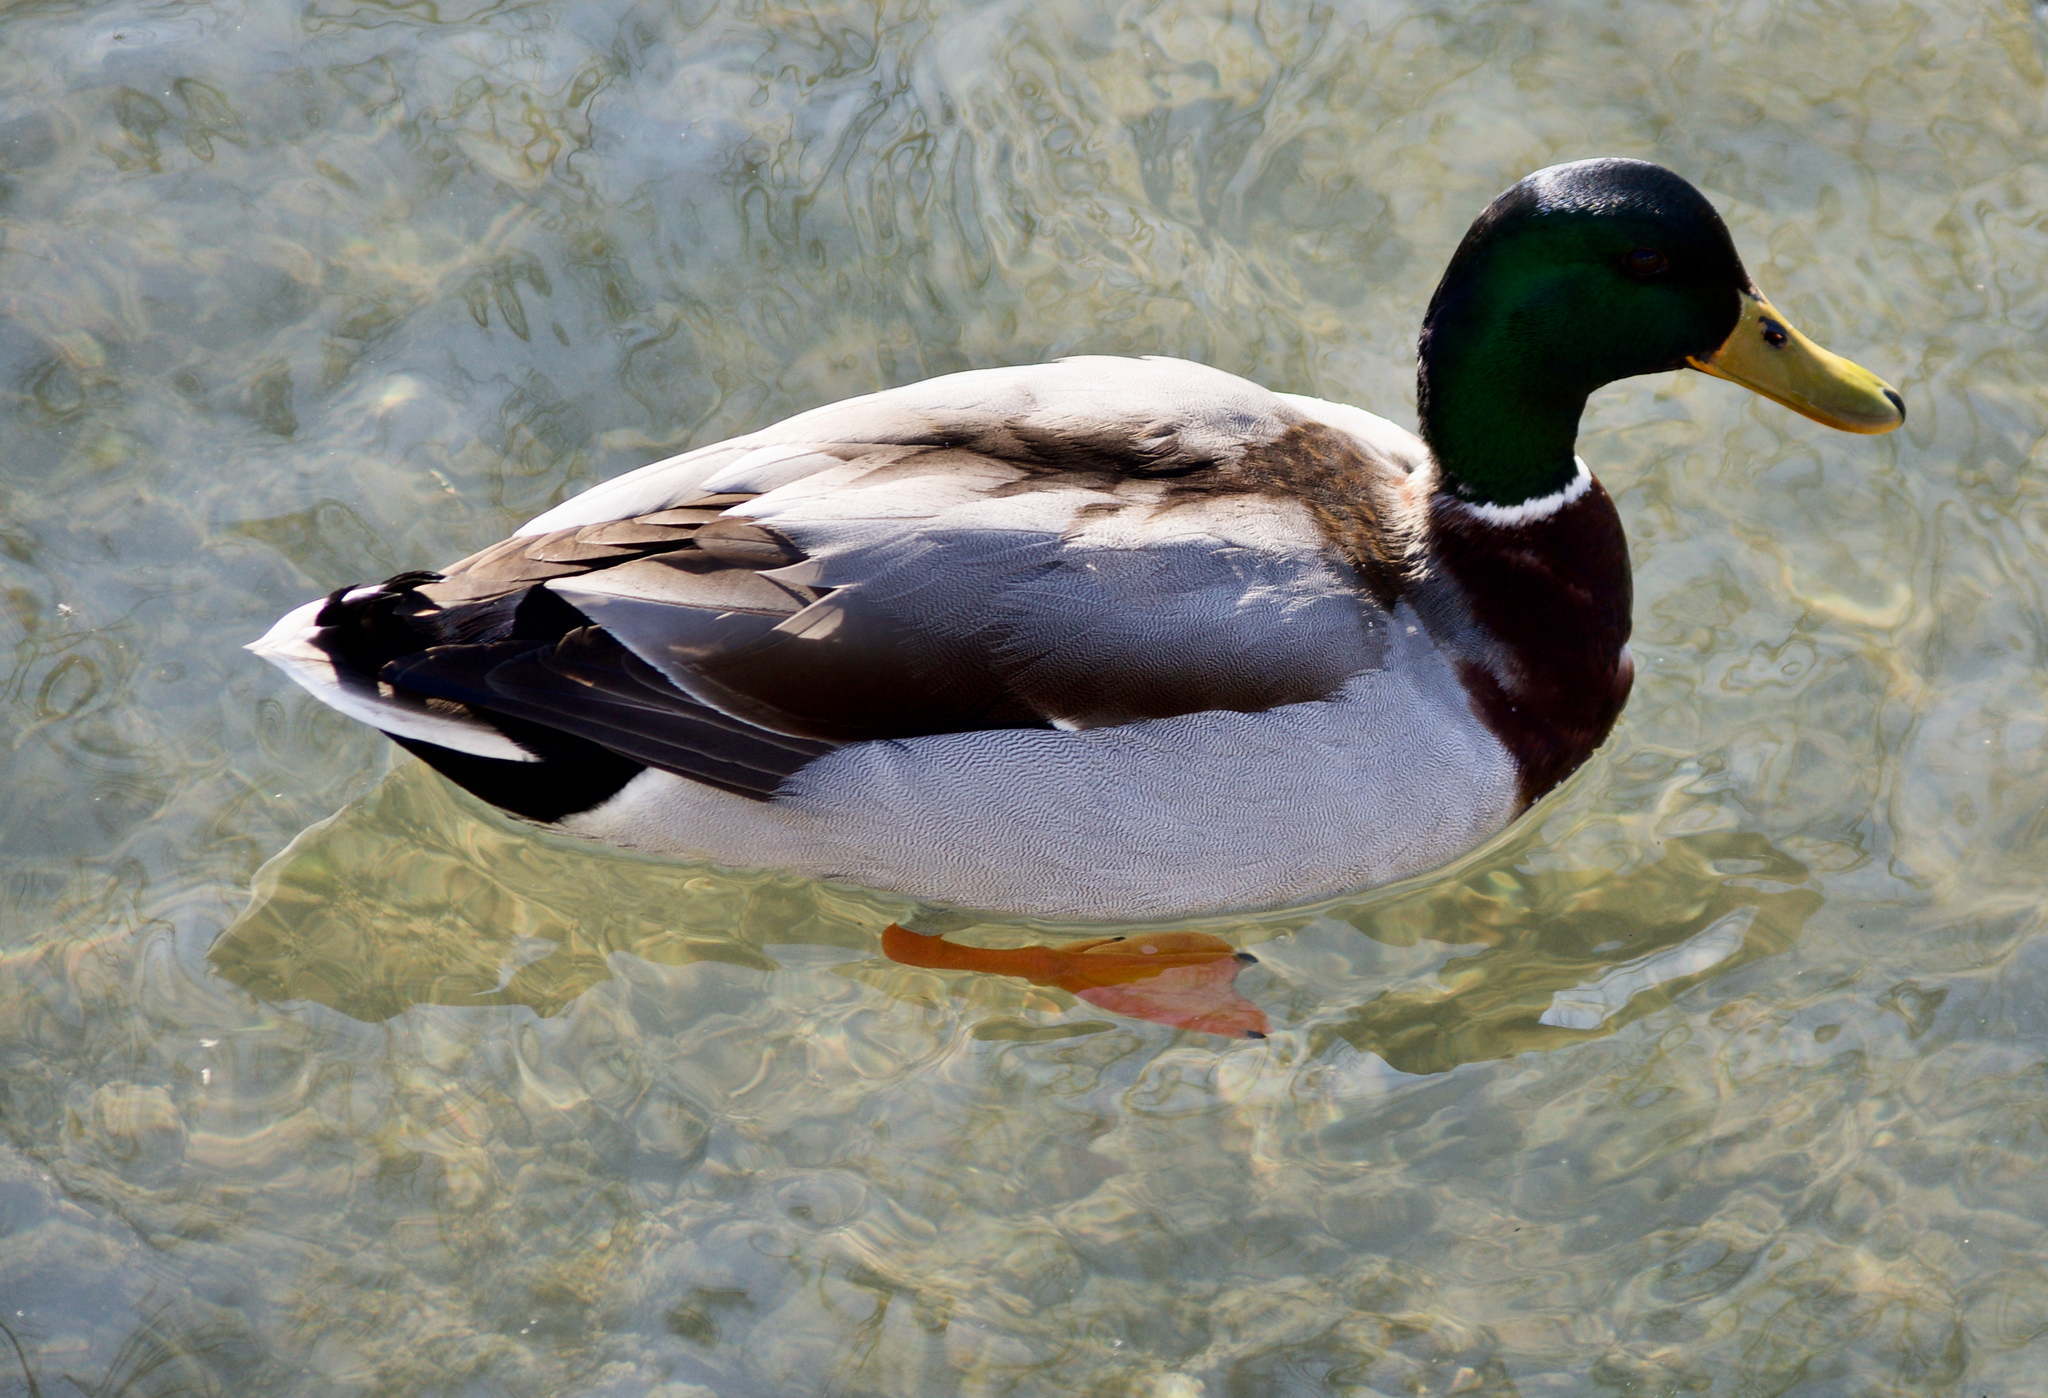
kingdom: Animalia
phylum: Chordata
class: Aves
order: Anseriformes
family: Anatidae
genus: Anas
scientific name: Anas platyrhynchos
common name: Mallard
